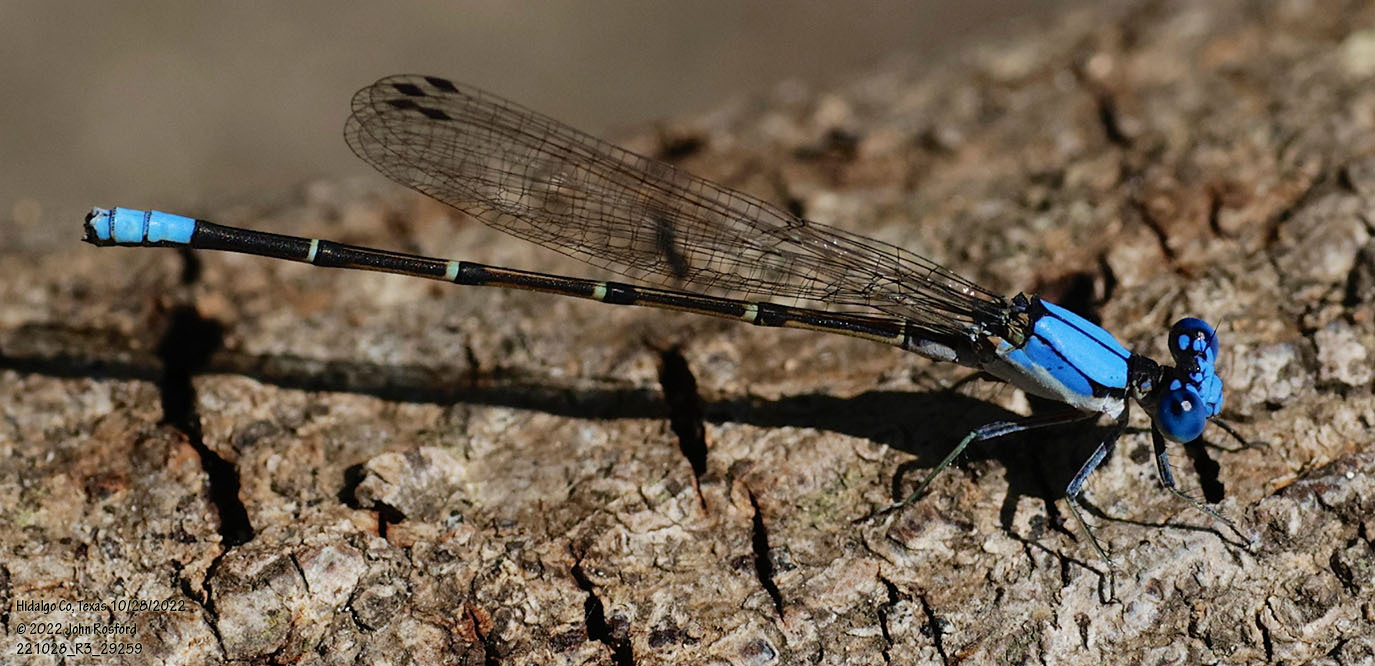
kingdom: Animalia
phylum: Arthropoda
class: Insecta
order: Odonata
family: Coenagrionidae
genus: Argia
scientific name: Argia apicalis
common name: Blue-fronted dancer
